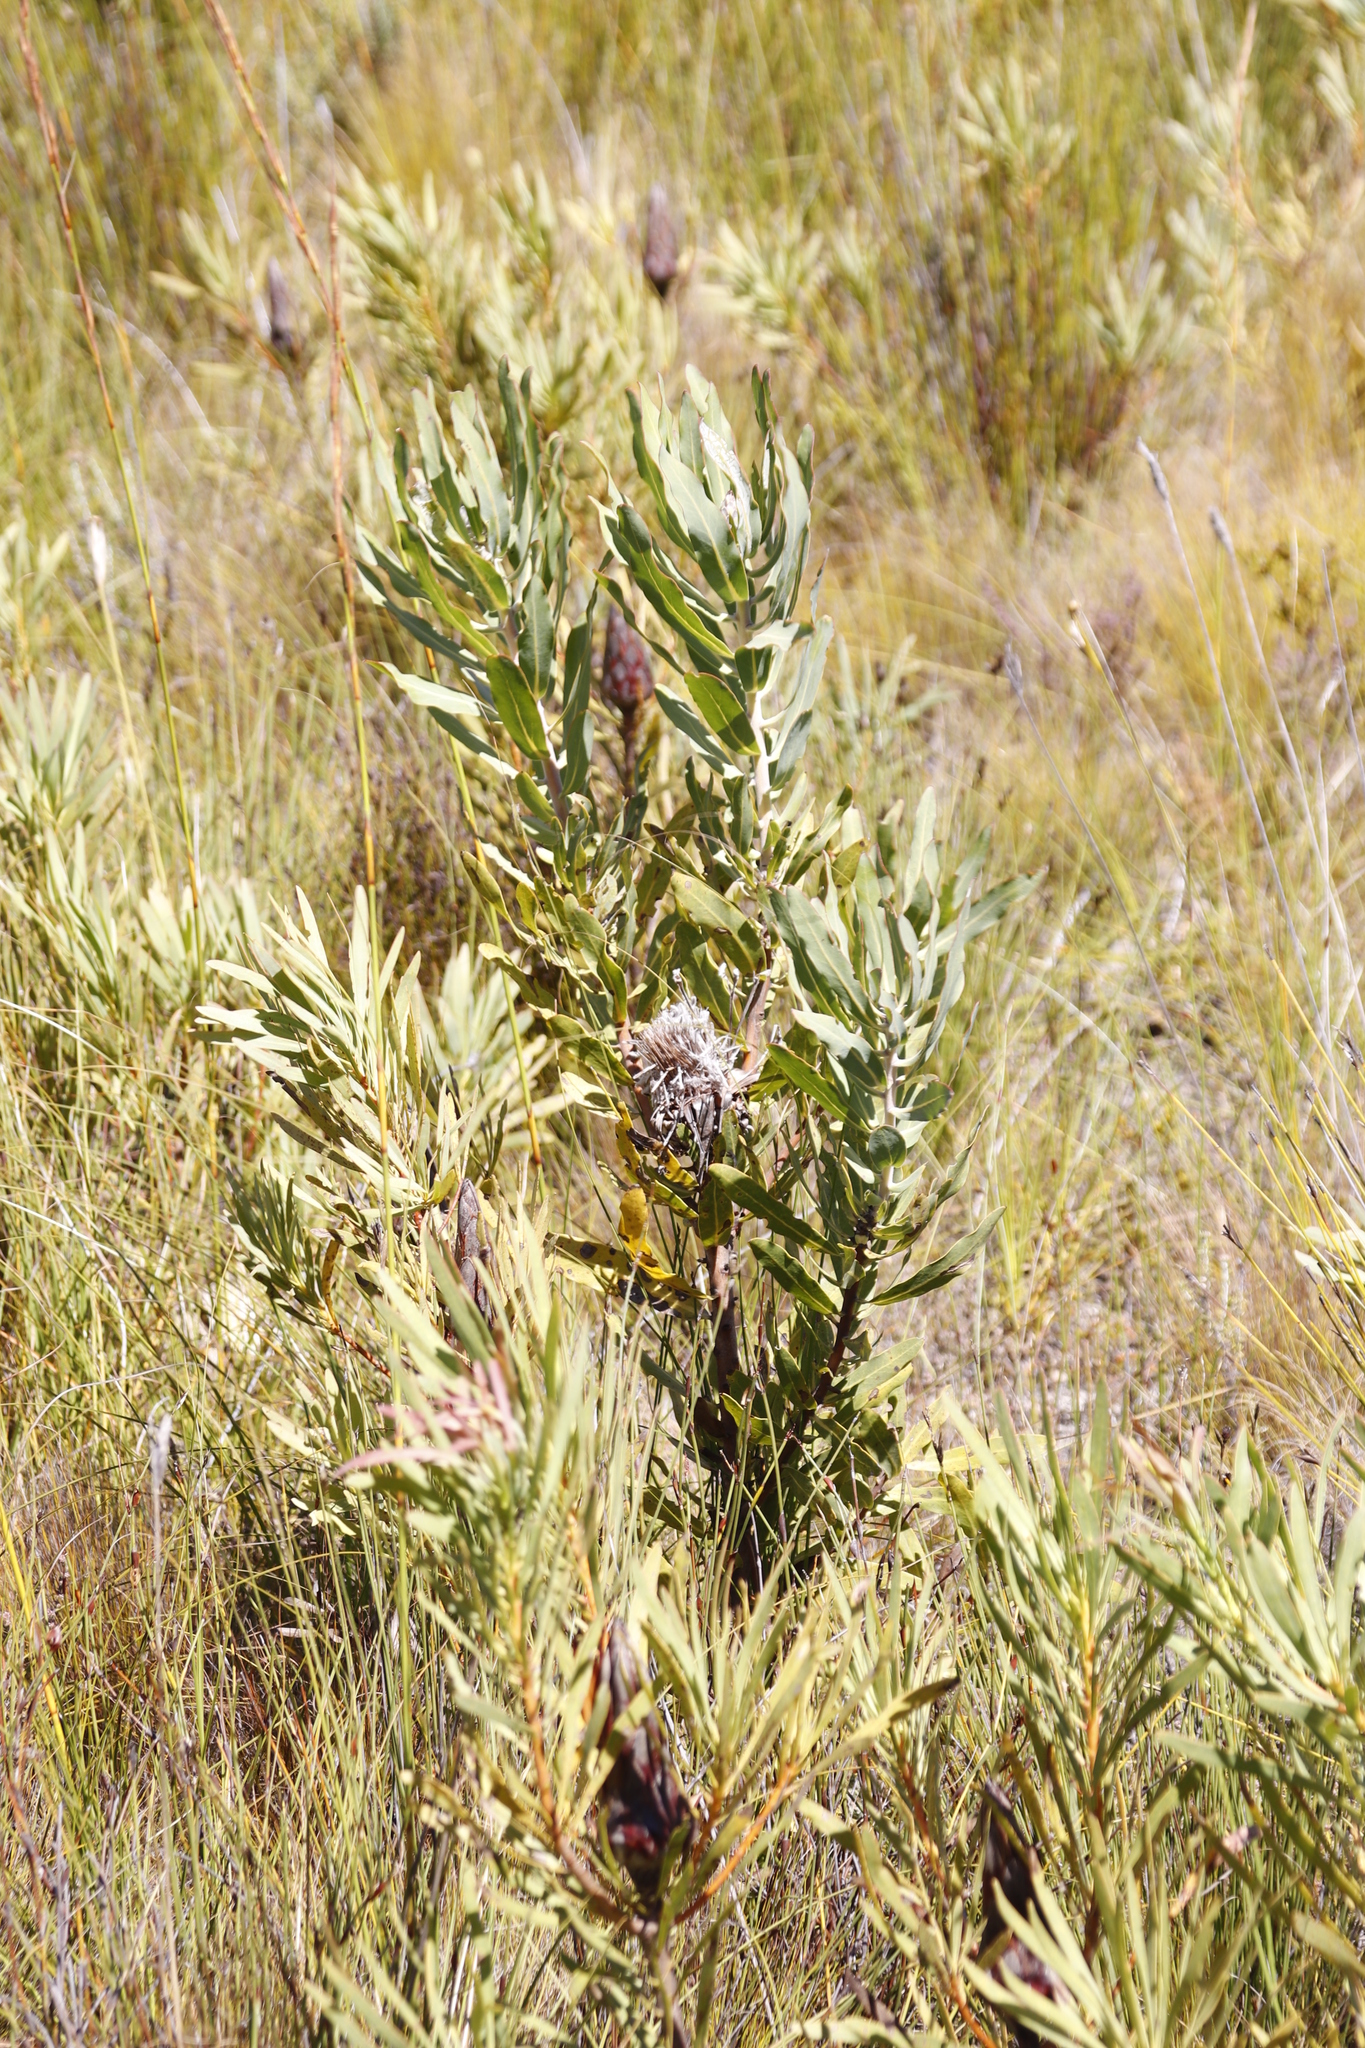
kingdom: Plantae
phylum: Tracheophyta
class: Magnoliopsida
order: Proteales
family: Proteaceae
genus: Protea
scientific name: Protea laurifolia
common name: Grey-leaf sugarbsh
